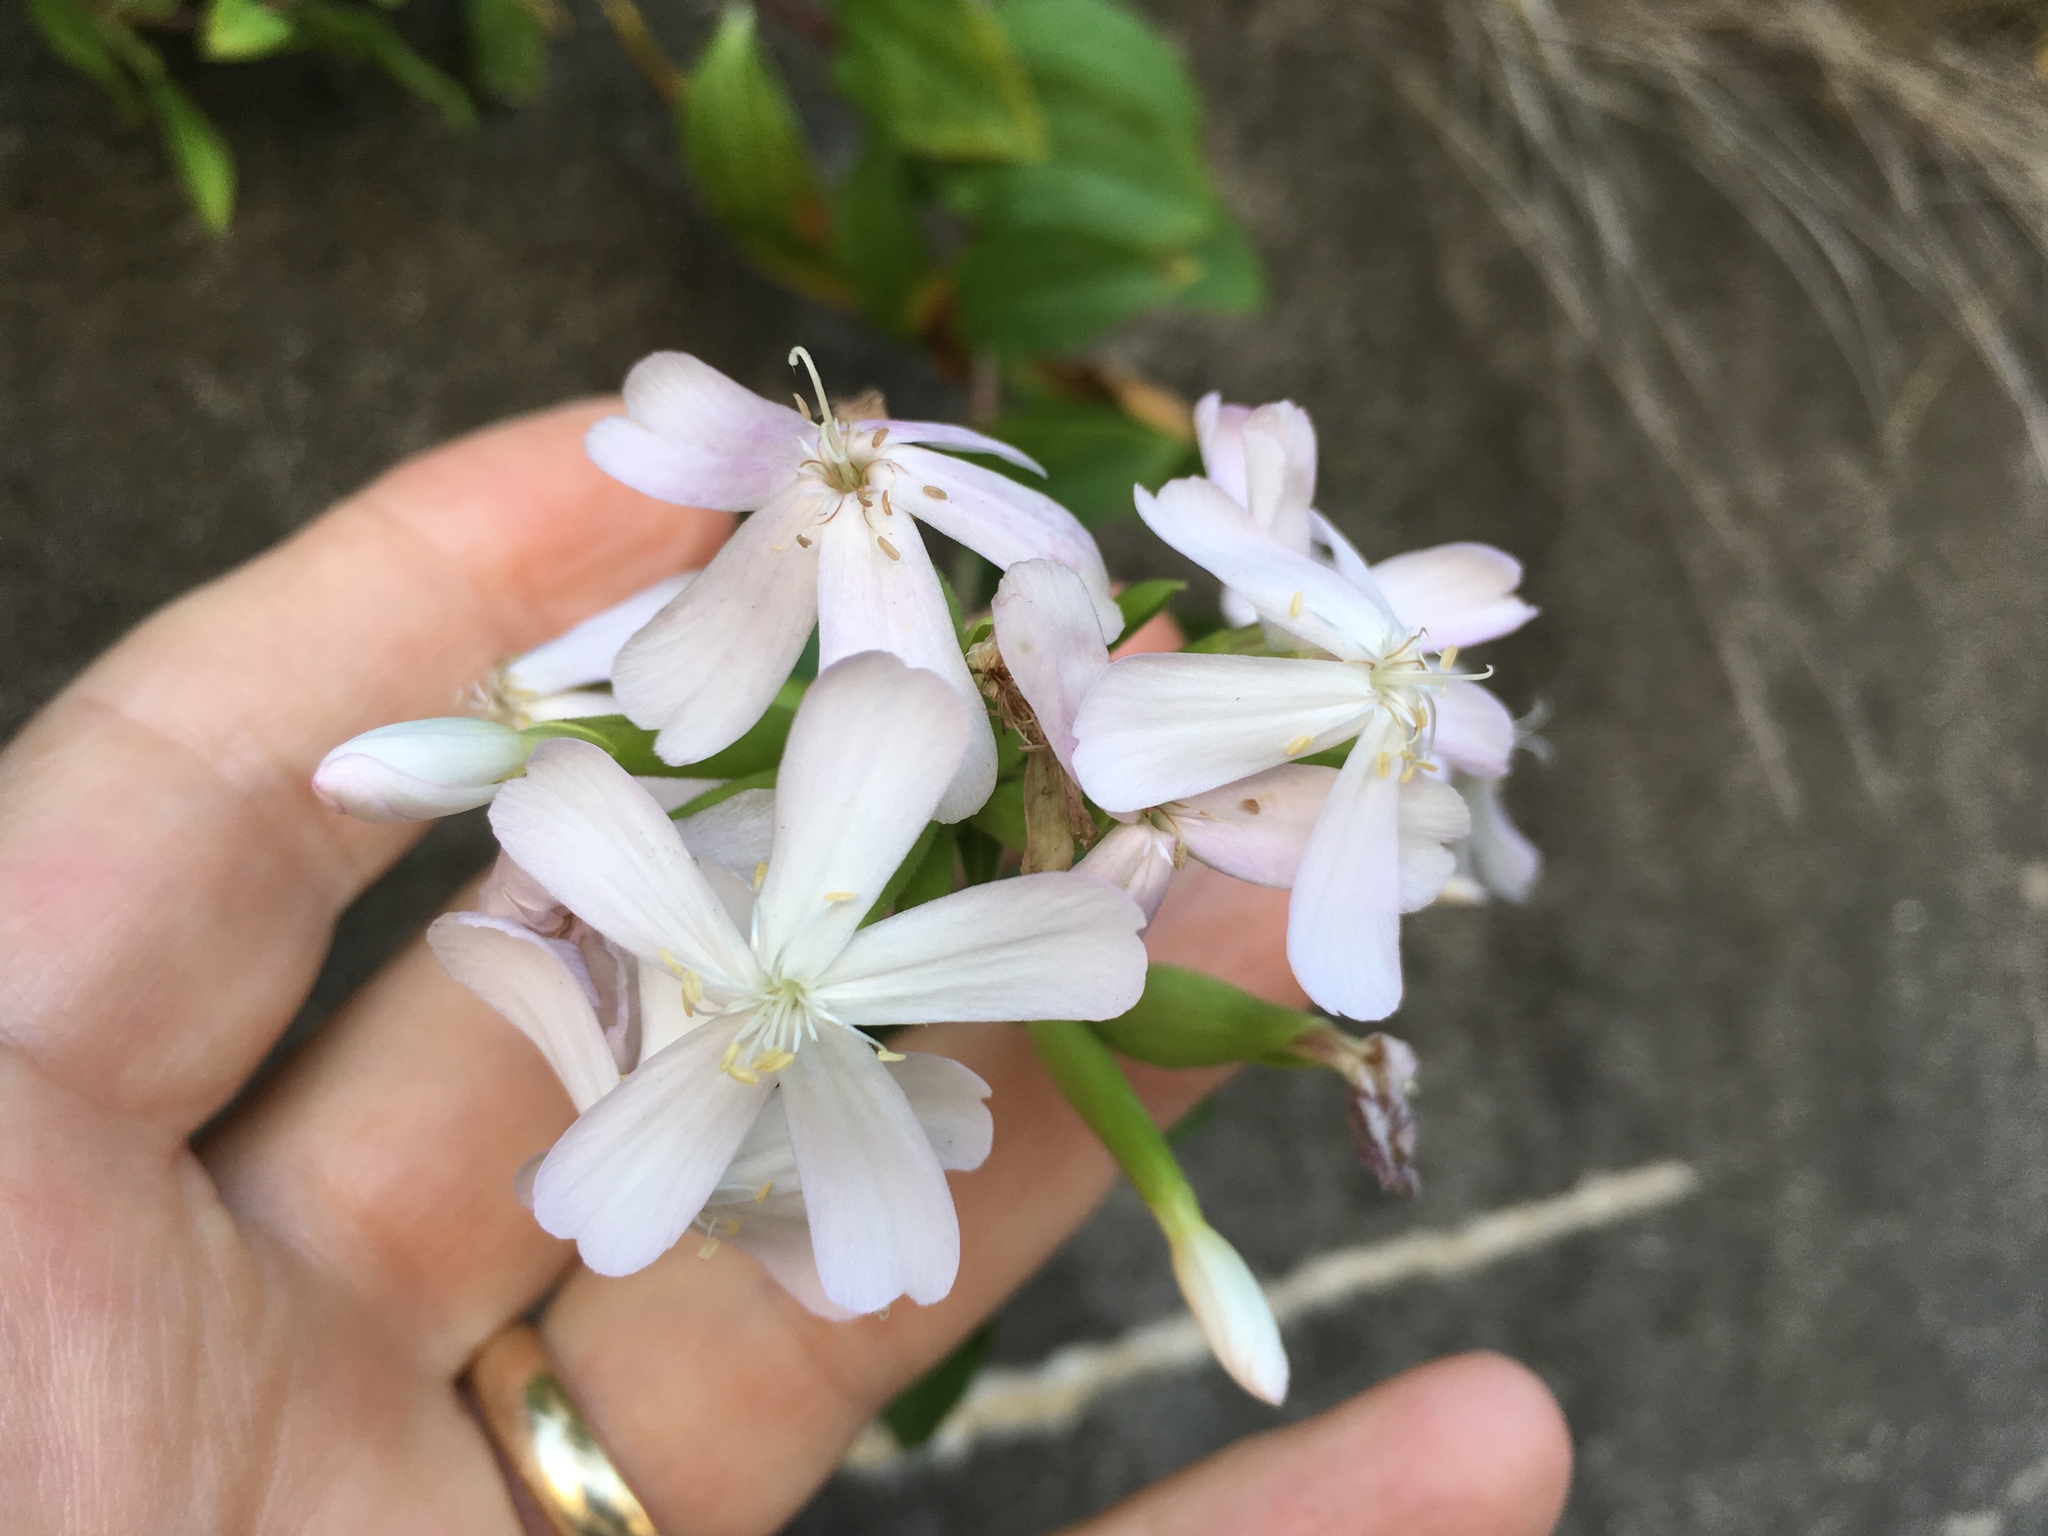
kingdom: Plantae
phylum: Tracheophyta
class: Magnoliopsida
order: Caryophyllales
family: Caryophyllaceae
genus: Saponaria
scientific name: Saponaria officinalis
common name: Soapwort
